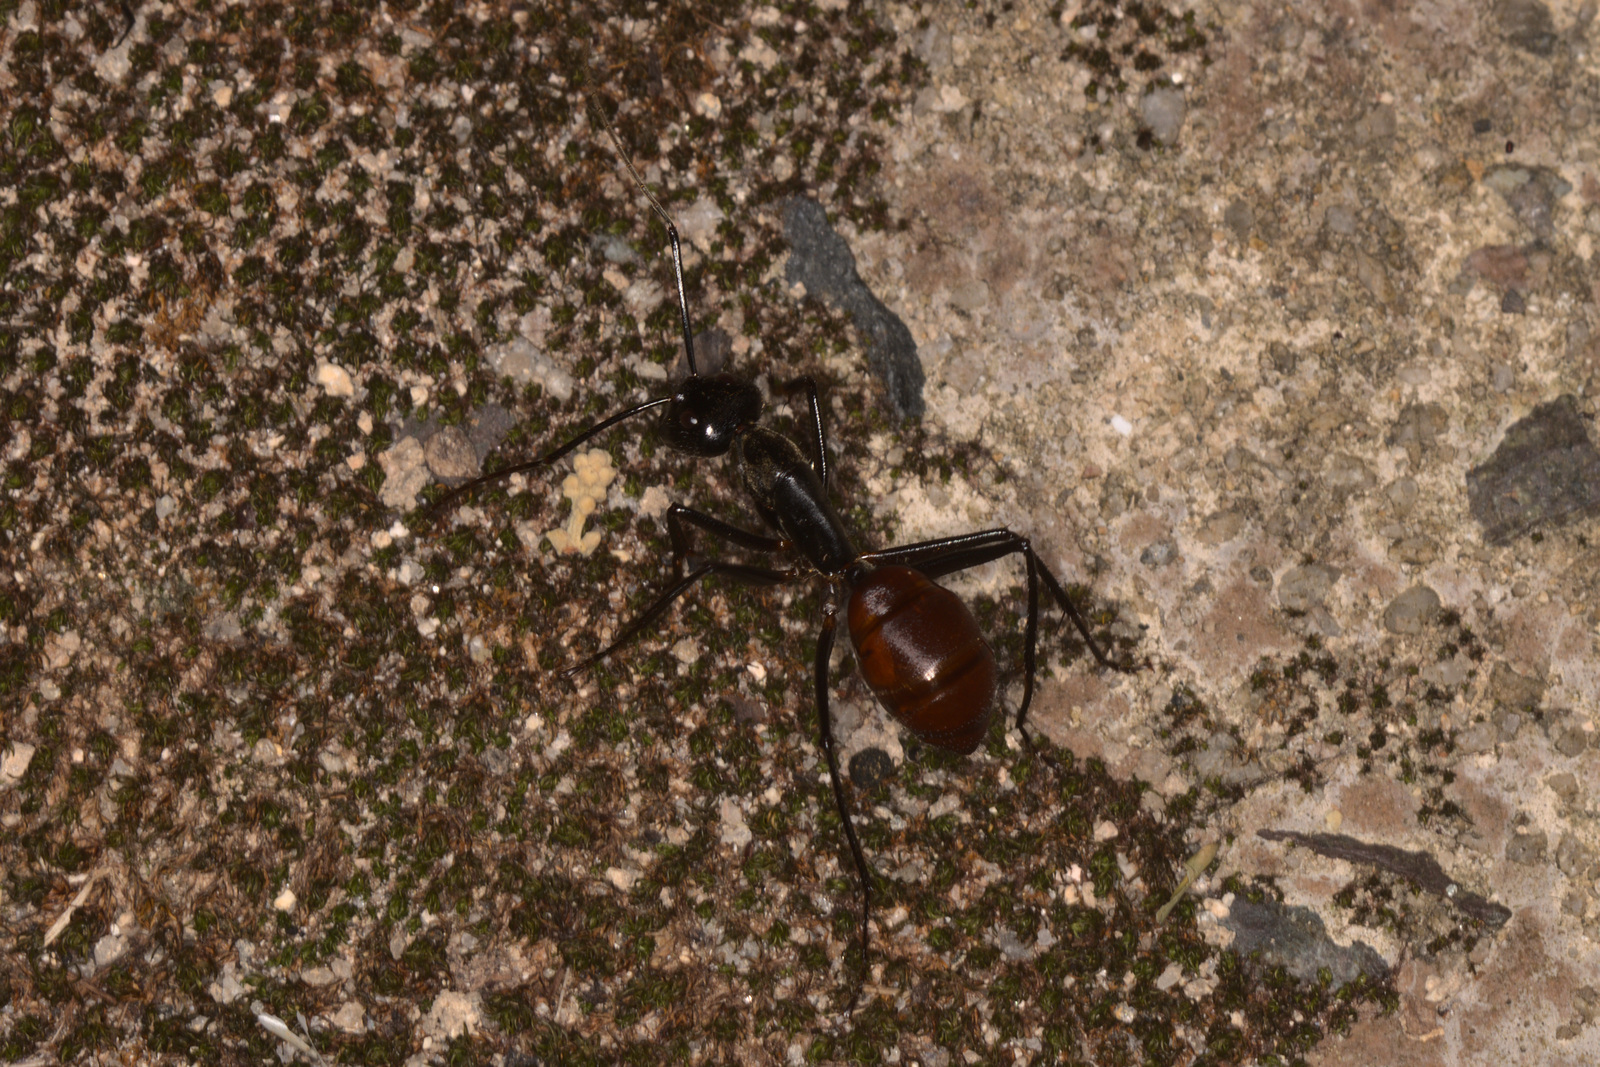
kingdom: Animalia
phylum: Arthropoda
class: Insecta
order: Hymenoptera
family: Formicidae
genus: Dinomyrmex
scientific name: Dinomyrmex
